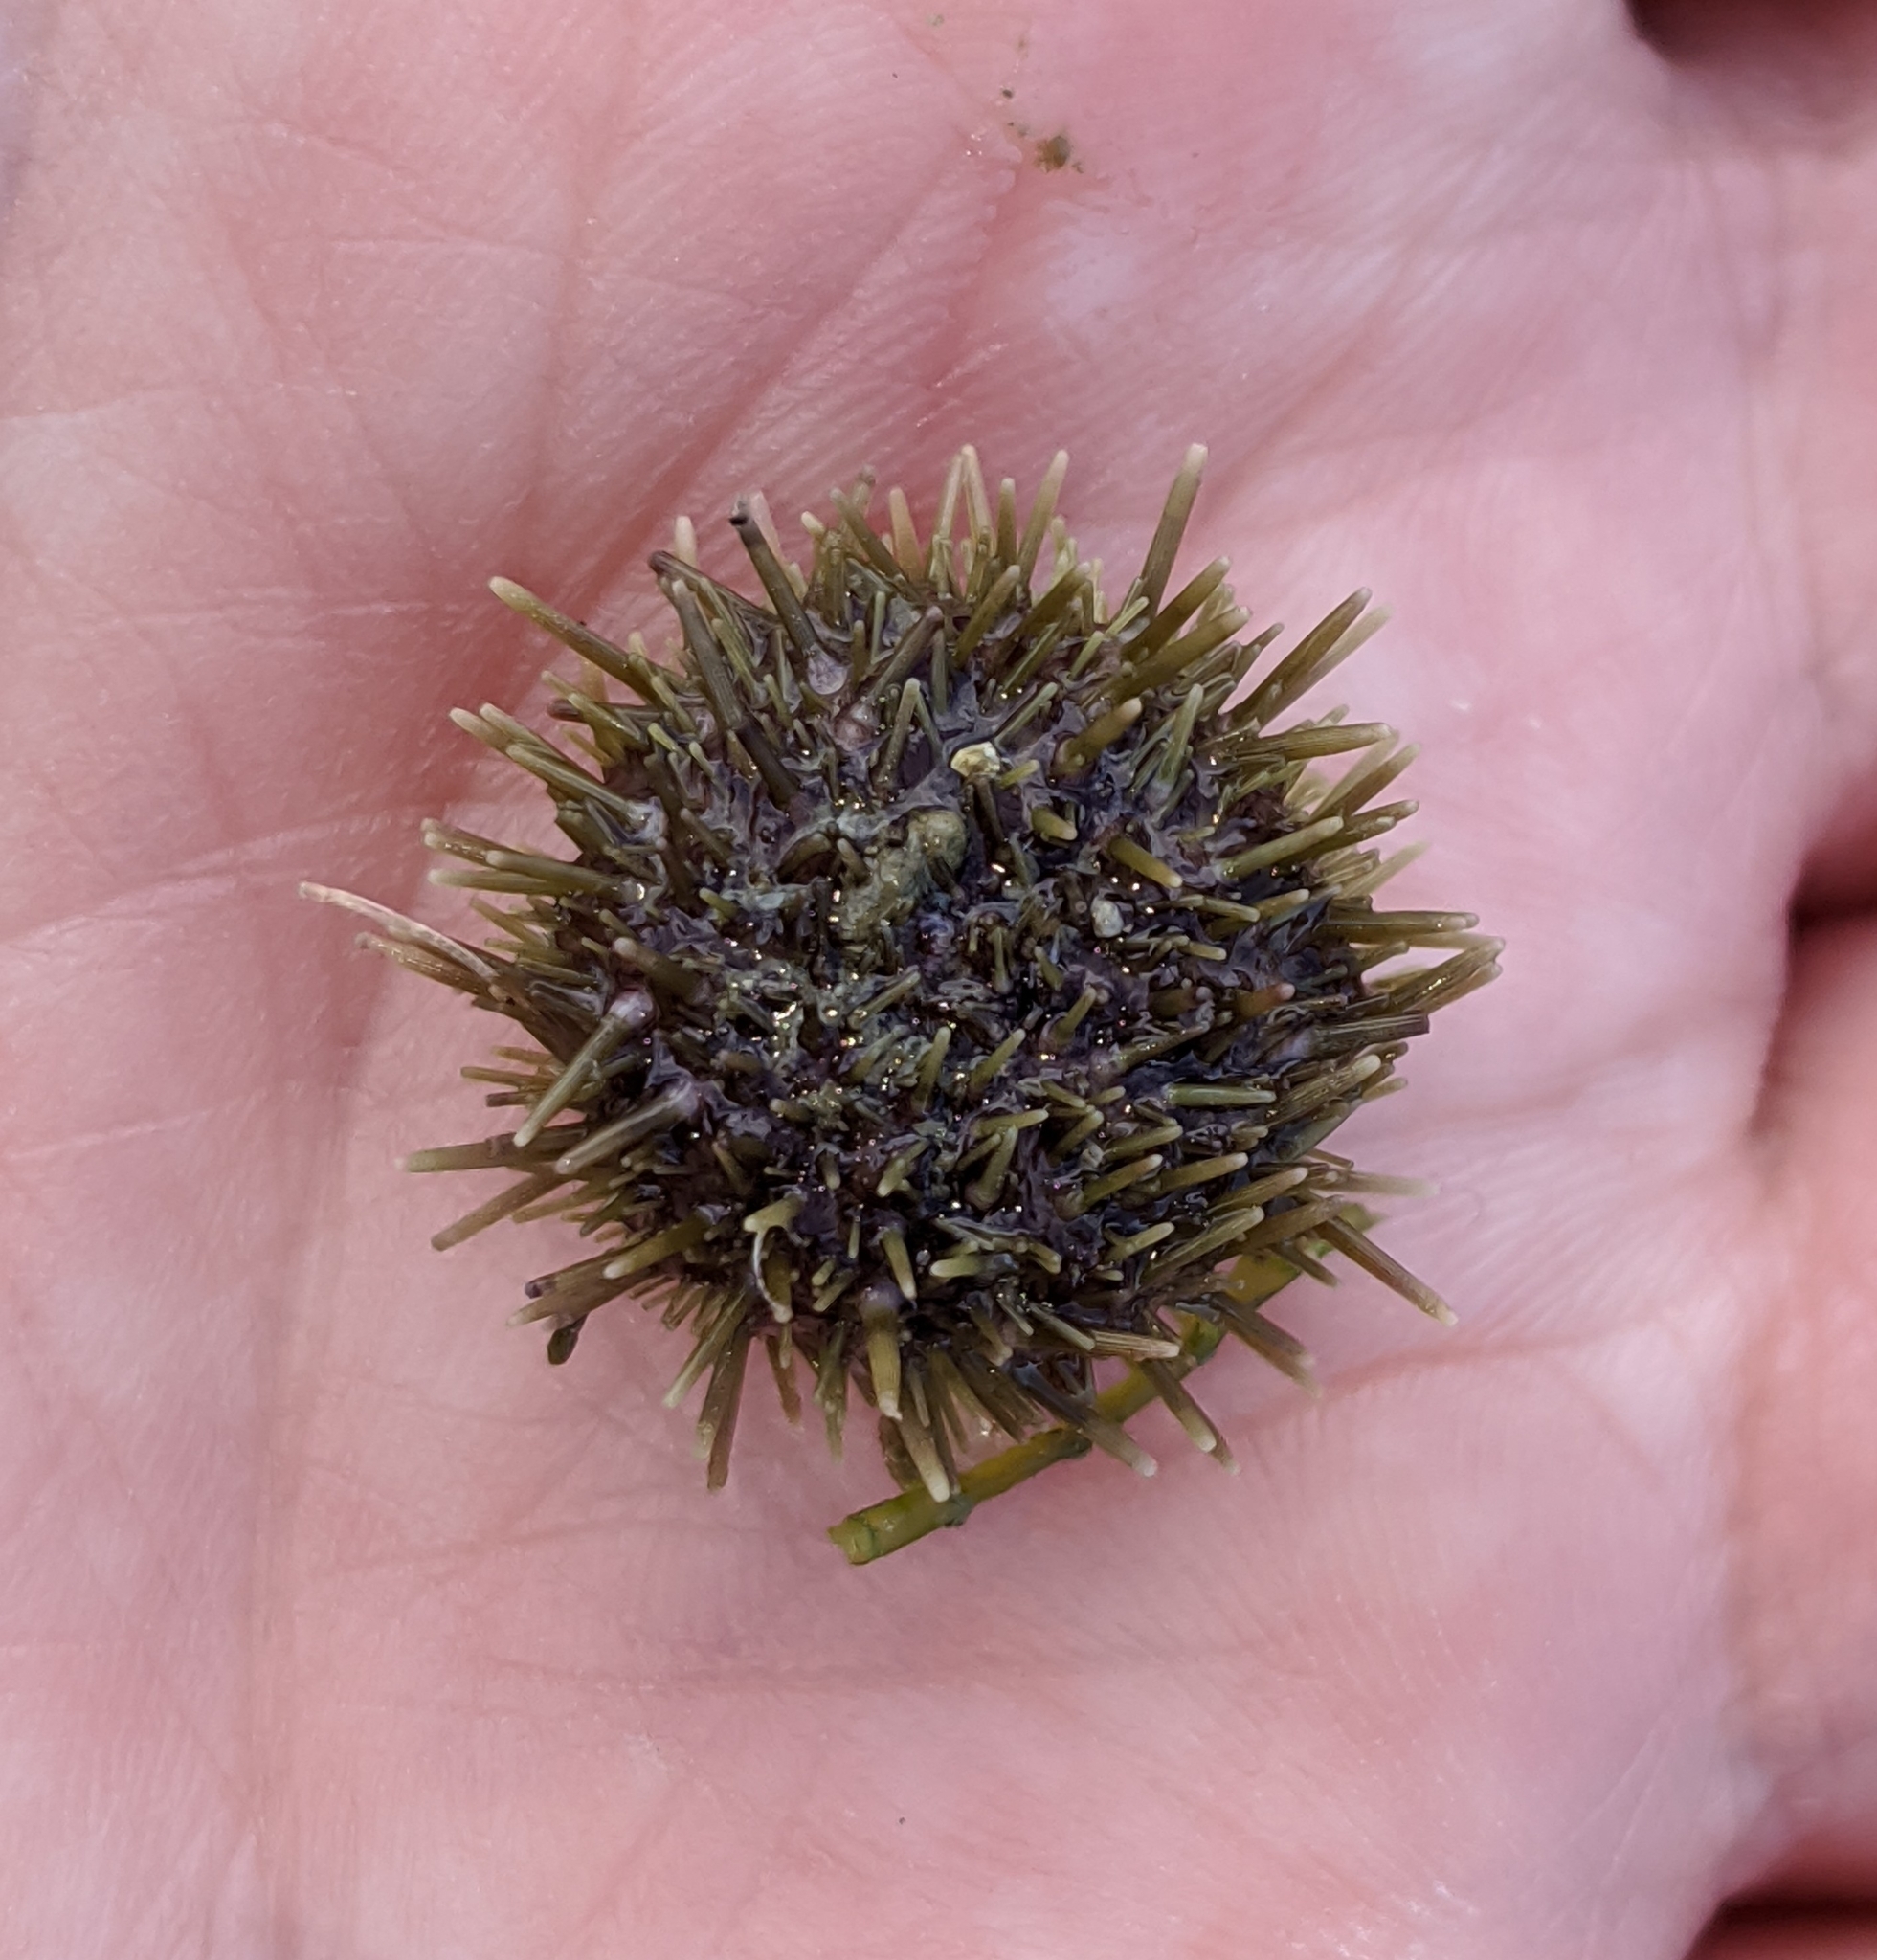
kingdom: Animalia
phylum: Echinodermata
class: Echinoidea
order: Camarodonta
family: Strongylocentrotidae
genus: Strongylocentrotus
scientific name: Strongylocentrotus droebachiensis
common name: Northern sea urchin
